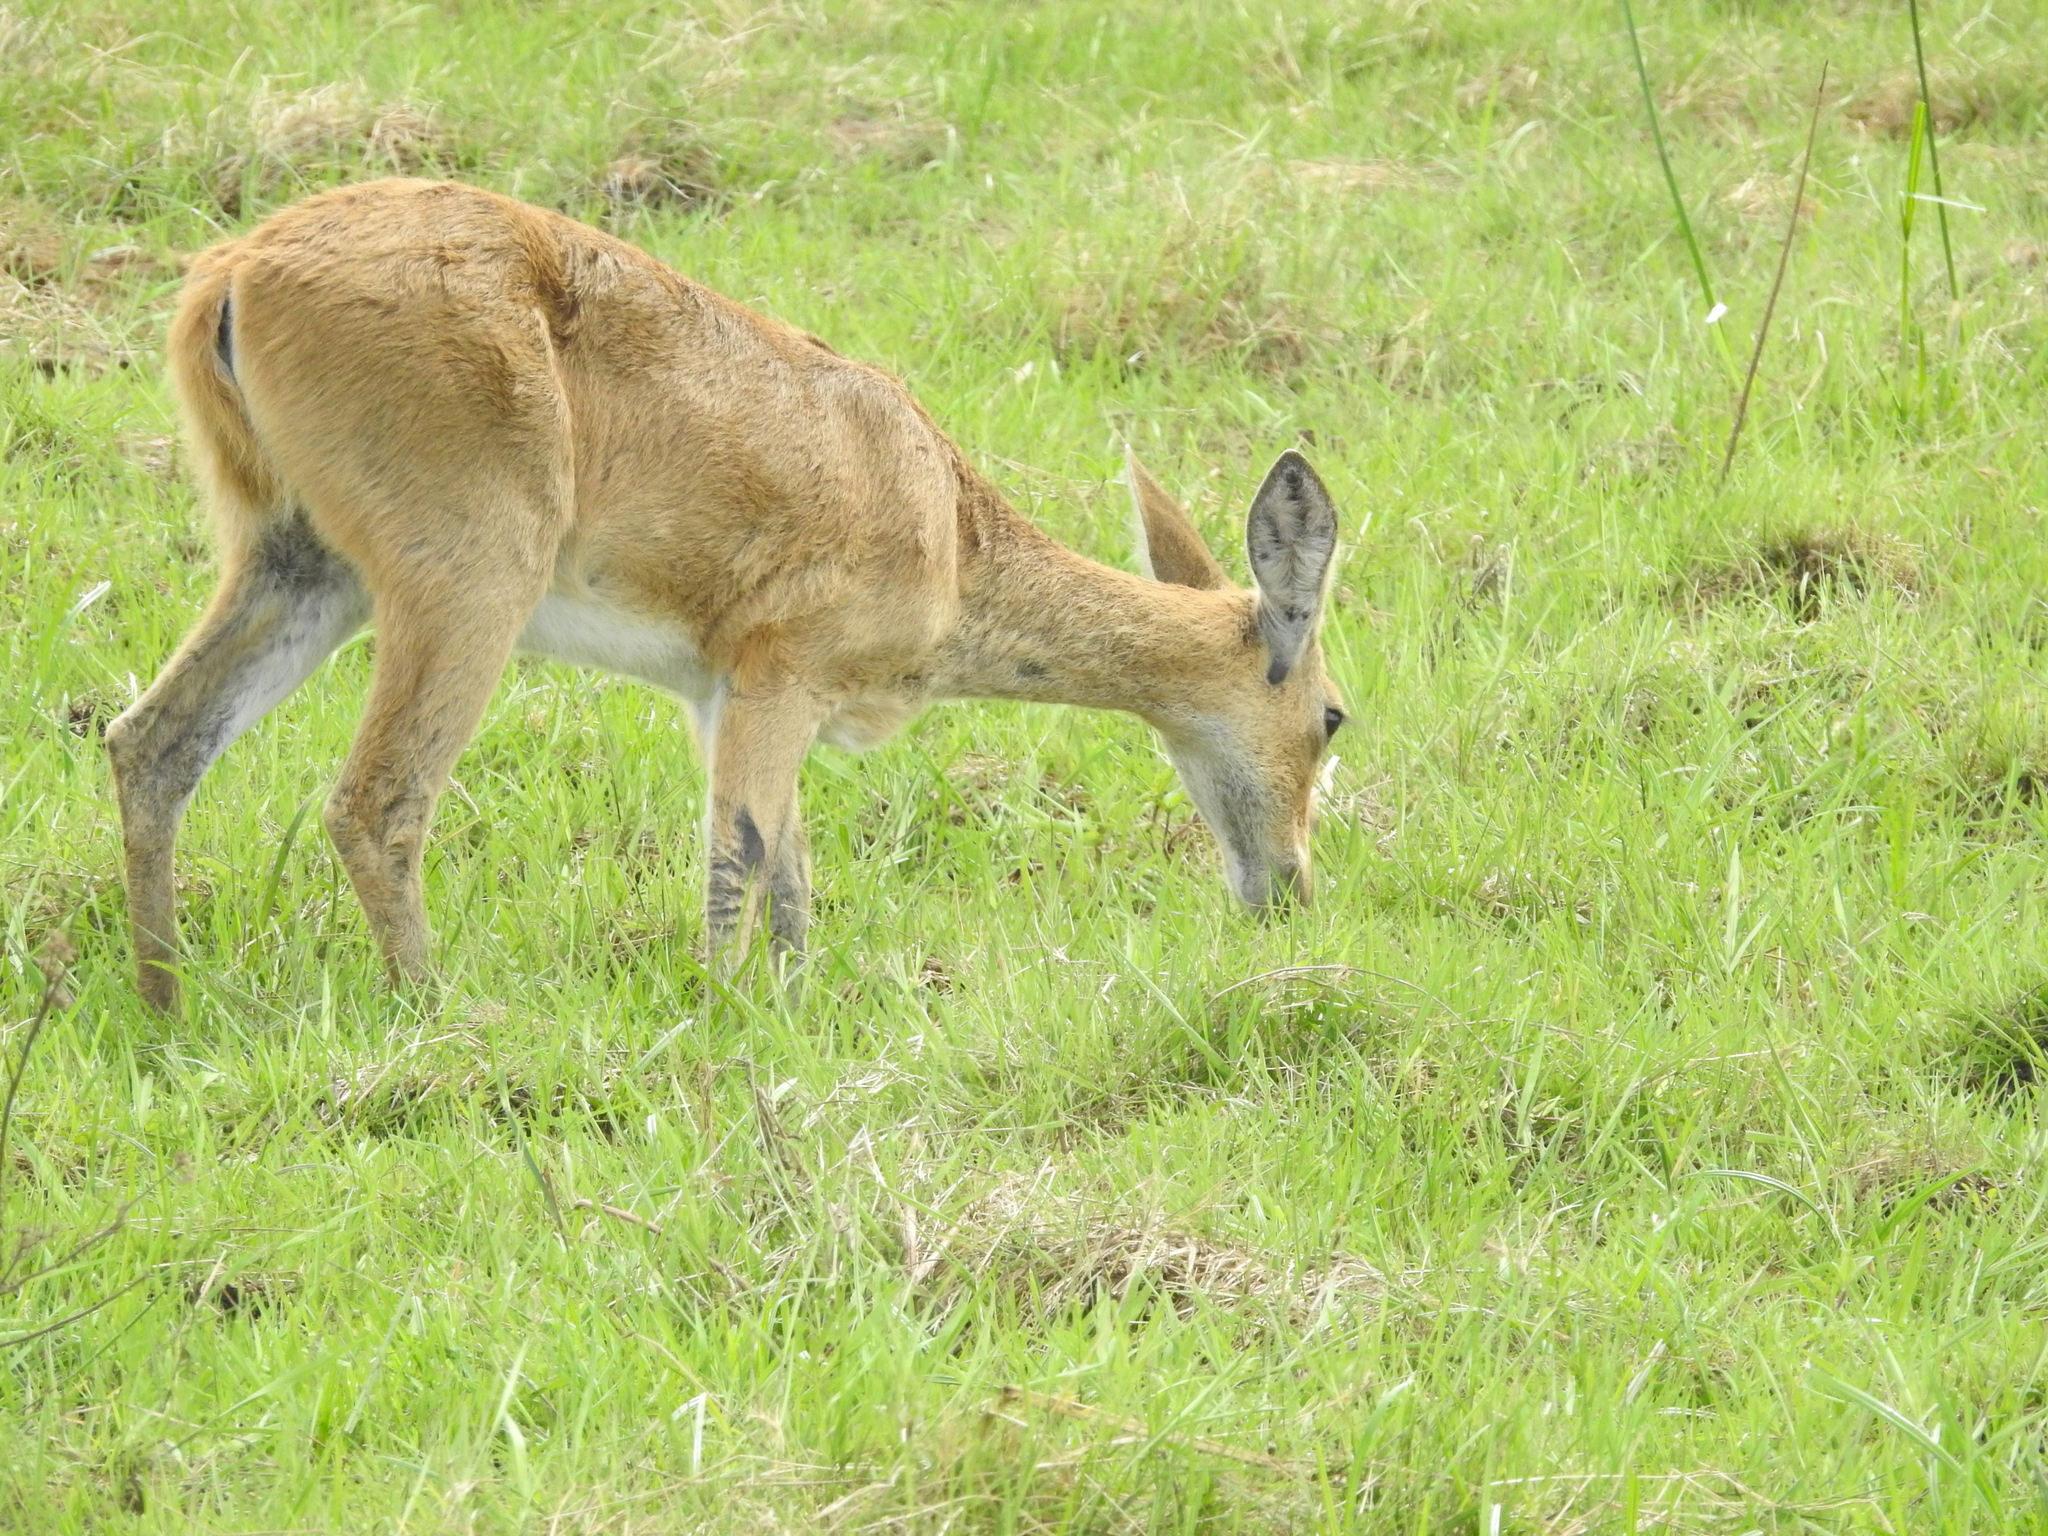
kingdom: Animalia
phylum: Chordata
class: Mammalia
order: Artiodactyla
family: Bovidae
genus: Redunca
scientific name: Redunca redunca
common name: Common reedbuck
